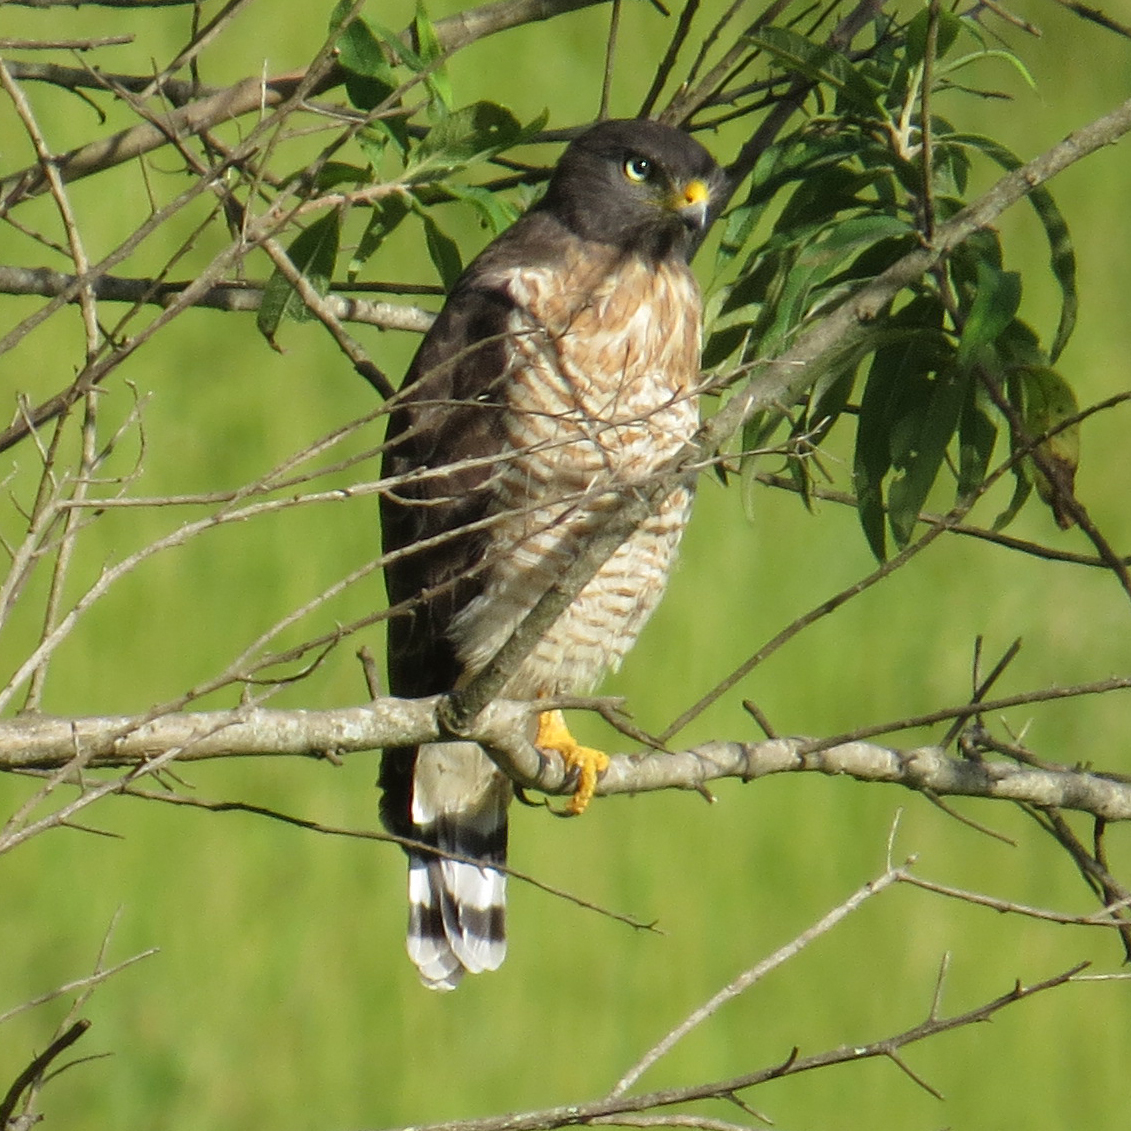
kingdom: Animalia
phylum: Chordata
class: Aves
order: Accipitriformes
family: Accipitridae
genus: Rupornis
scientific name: Rupornis magnirostris
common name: Roadside hawk
